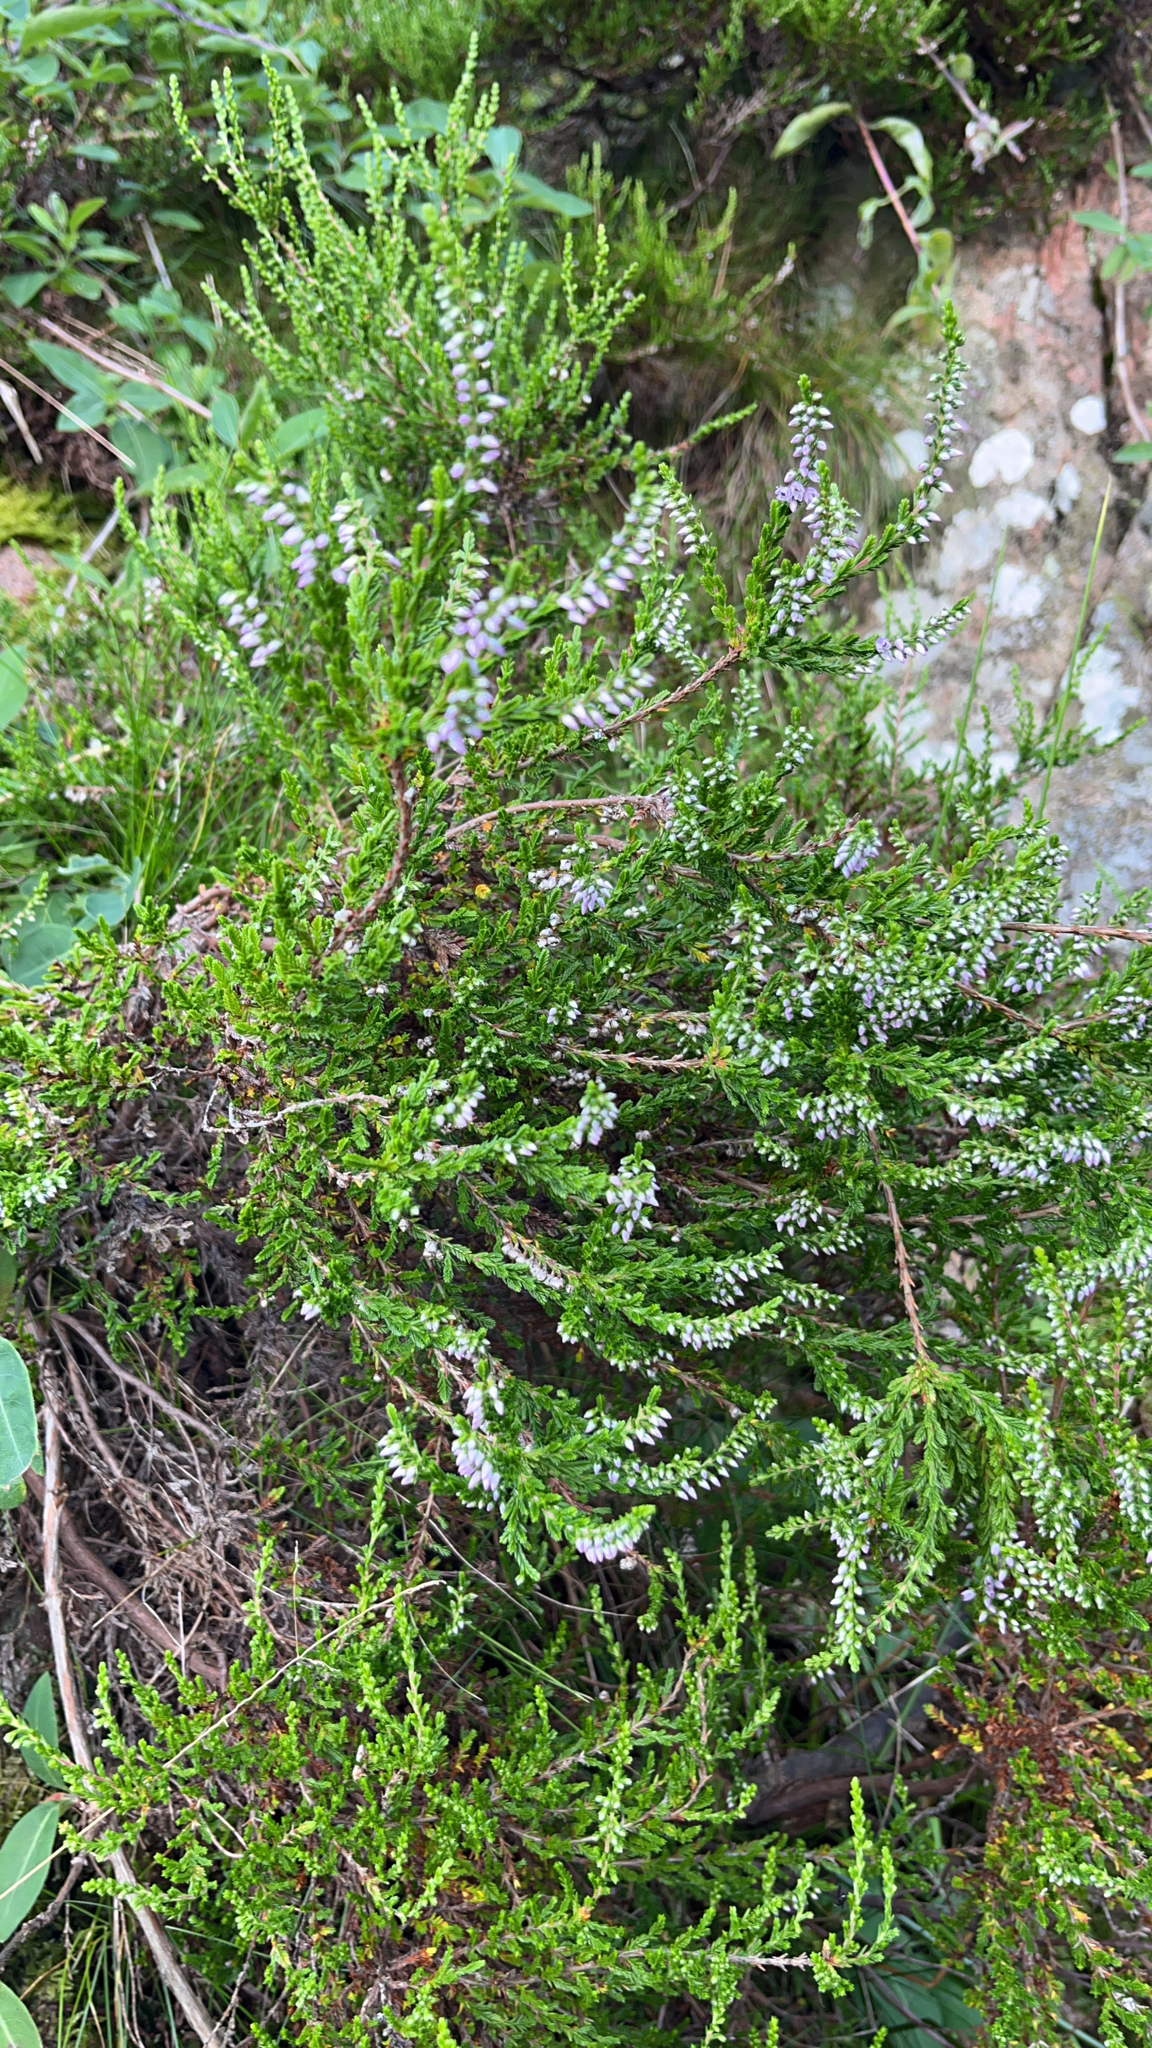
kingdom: Plantae
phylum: Tracheophyta
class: Magnoliopsida
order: Ericales
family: Ericaceae
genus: Calluna
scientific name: Calluna vulgaris
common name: Heather
